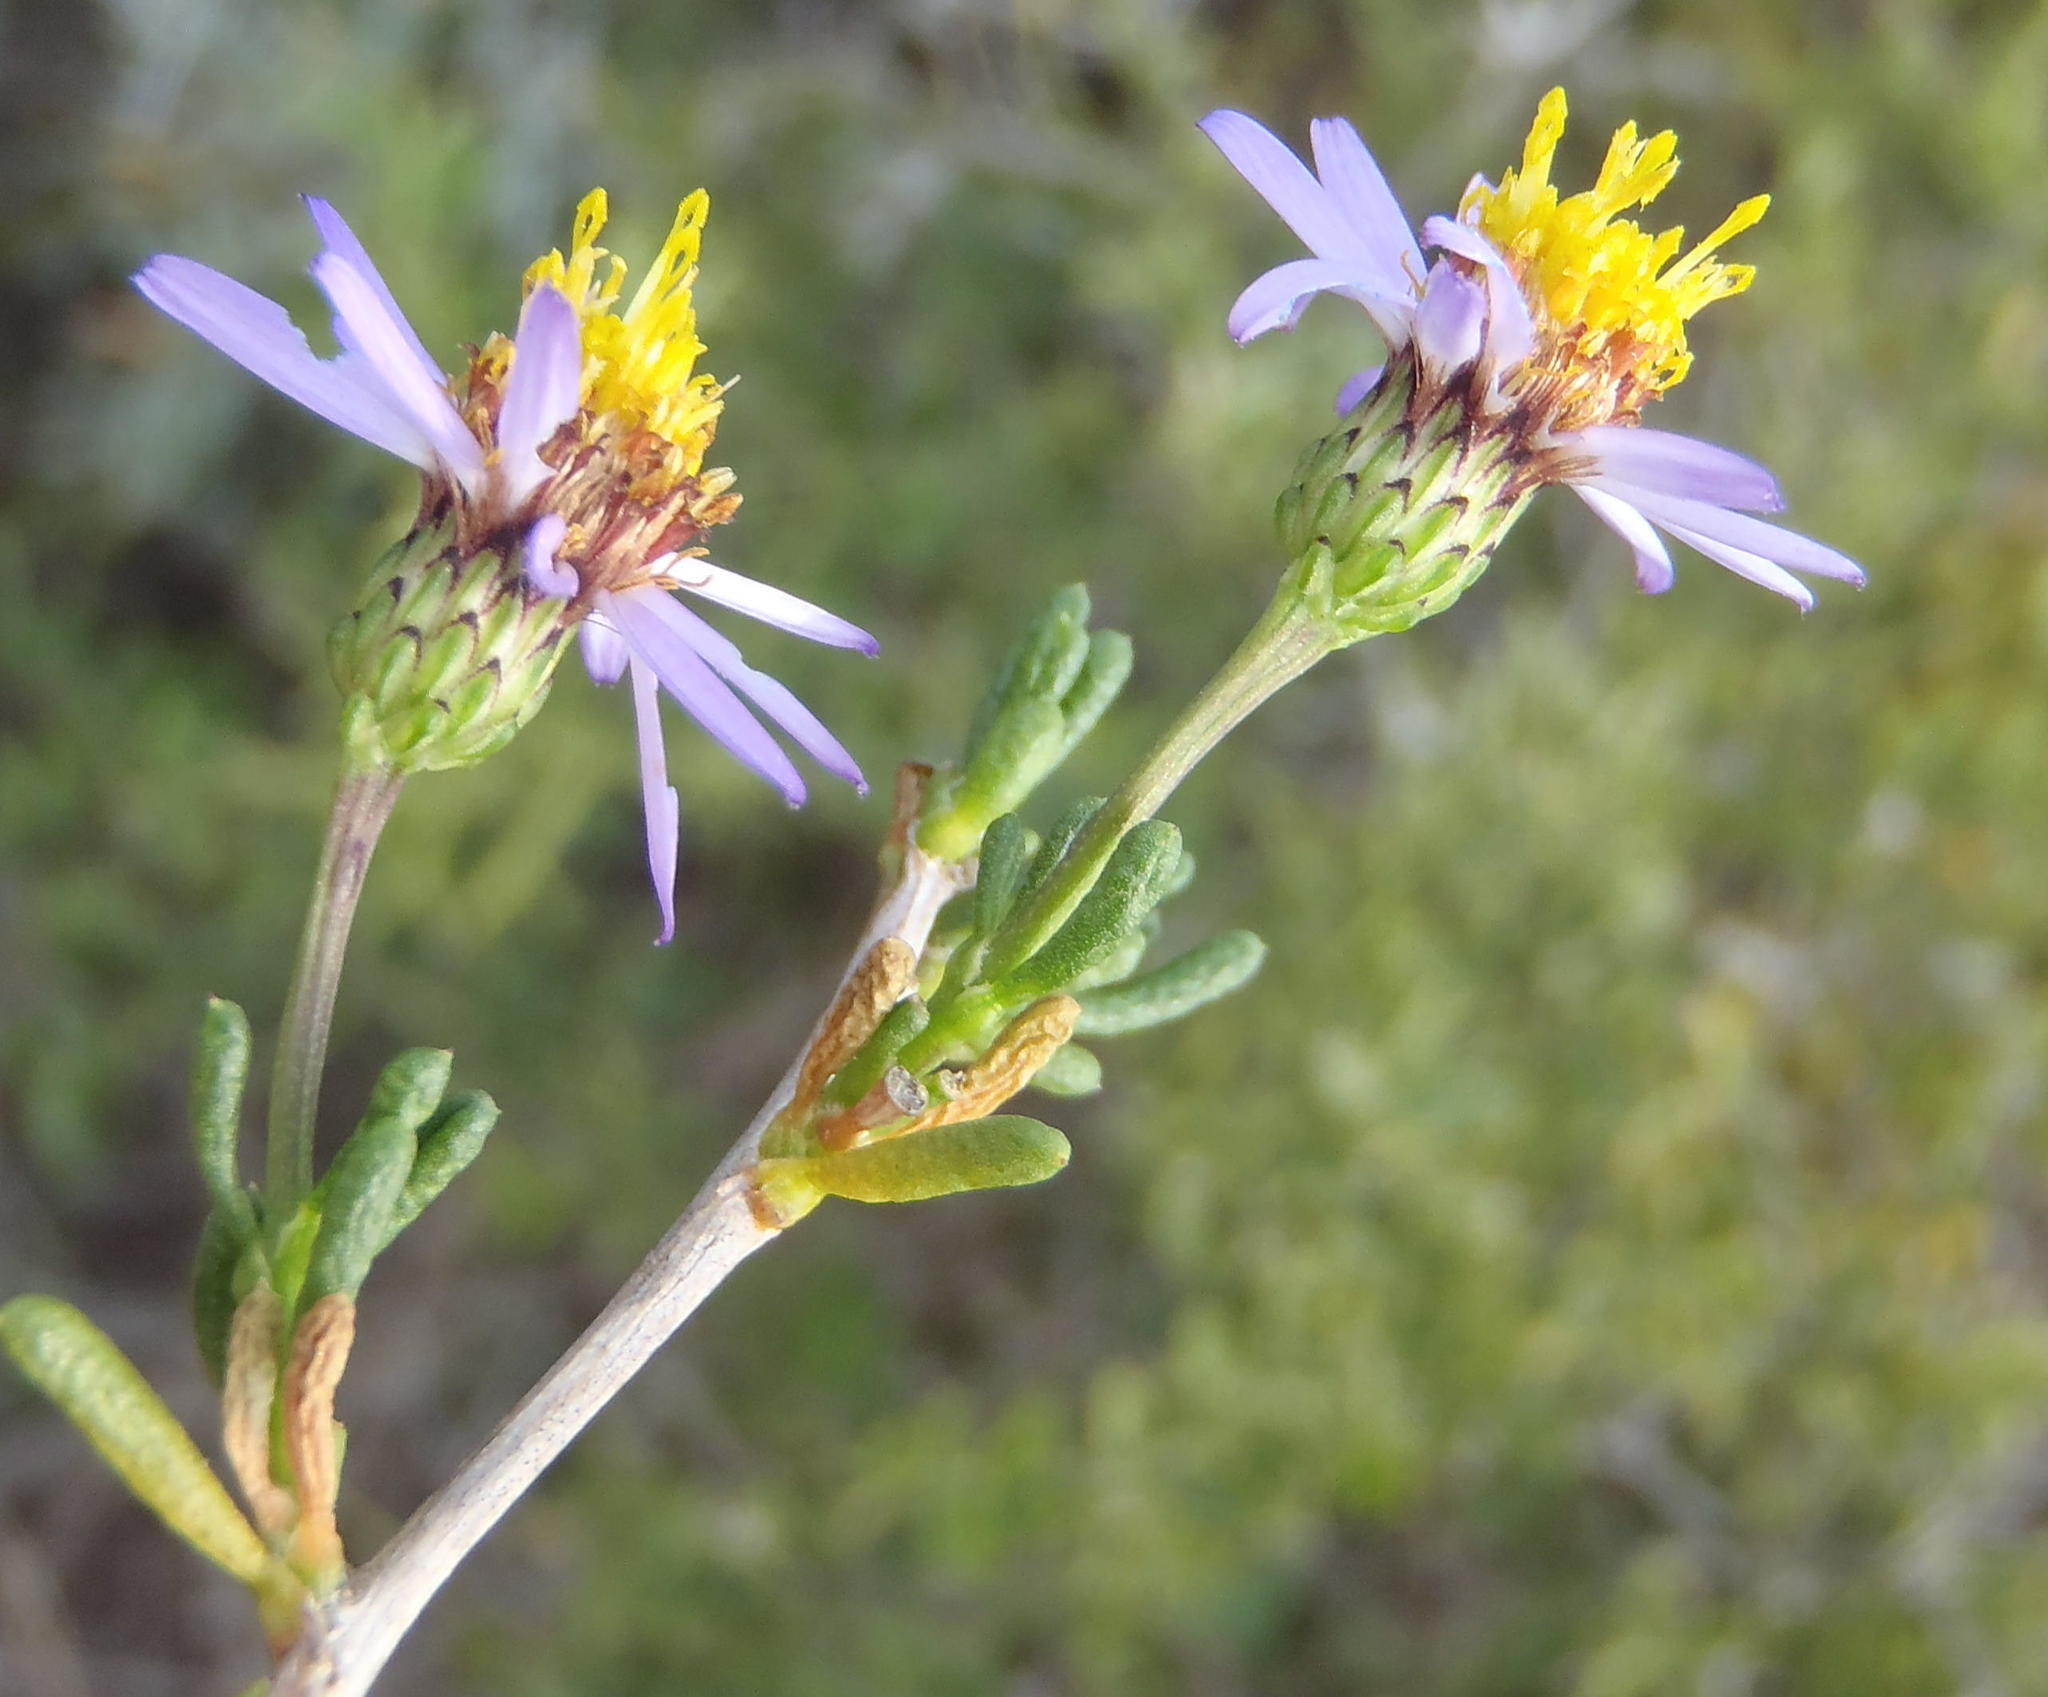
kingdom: Plantae
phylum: Tracheophyta
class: Magnoliopsida
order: Asterales
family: Asteraceae
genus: Felicia
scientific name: Felicia filifolia
